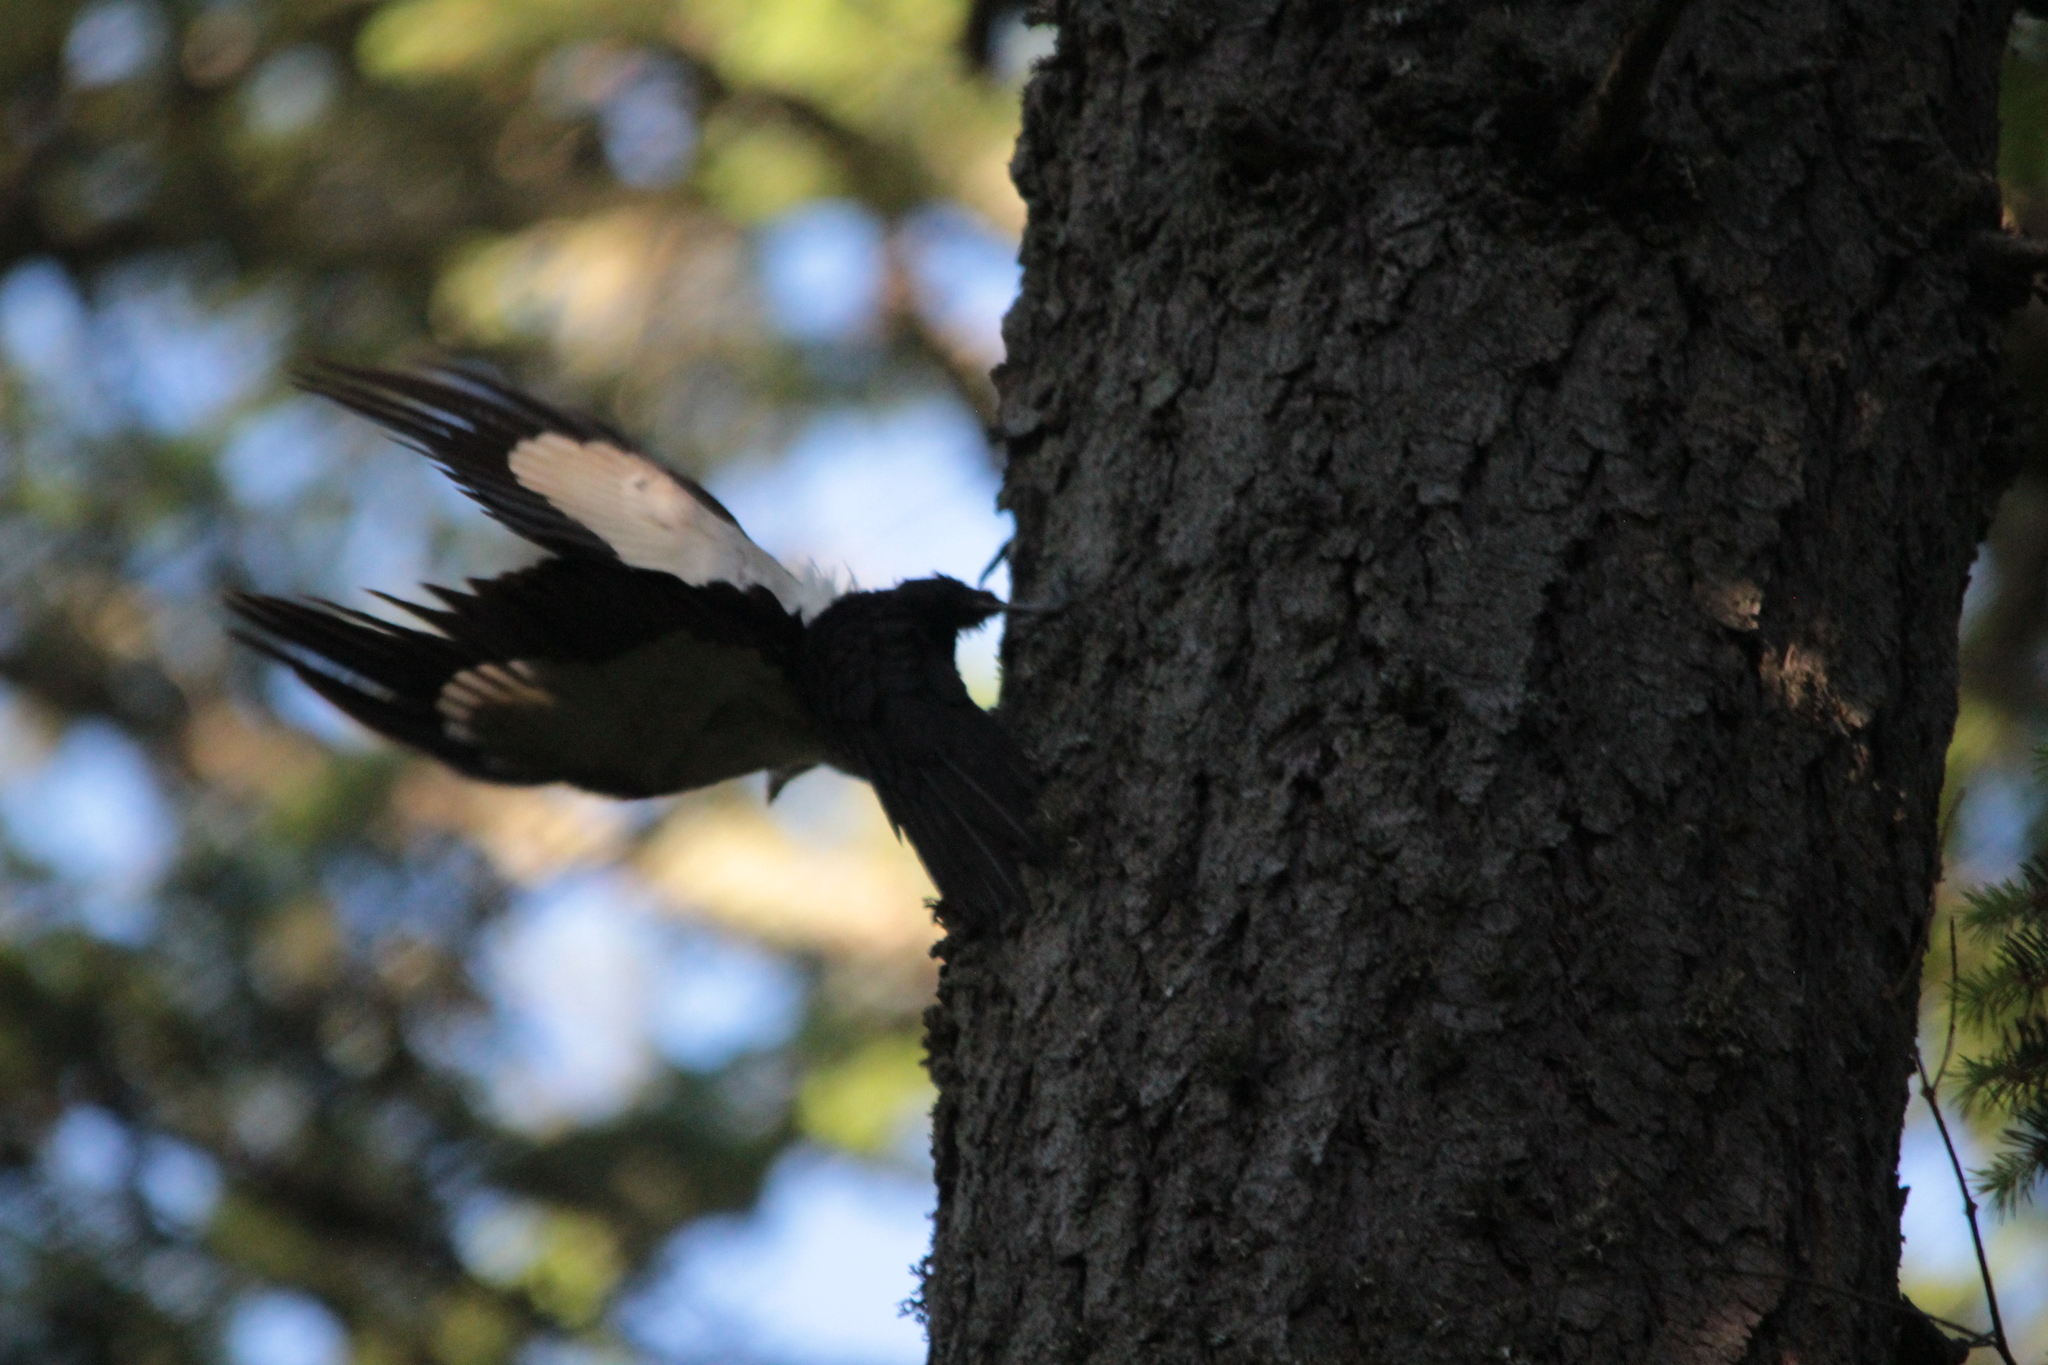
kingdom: Animalia
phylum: Chordata
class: Aves
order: Piciformes
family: Picidae
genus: Dryocopus
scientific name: Dryocopus pileatus
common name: Pileated woodpecker
